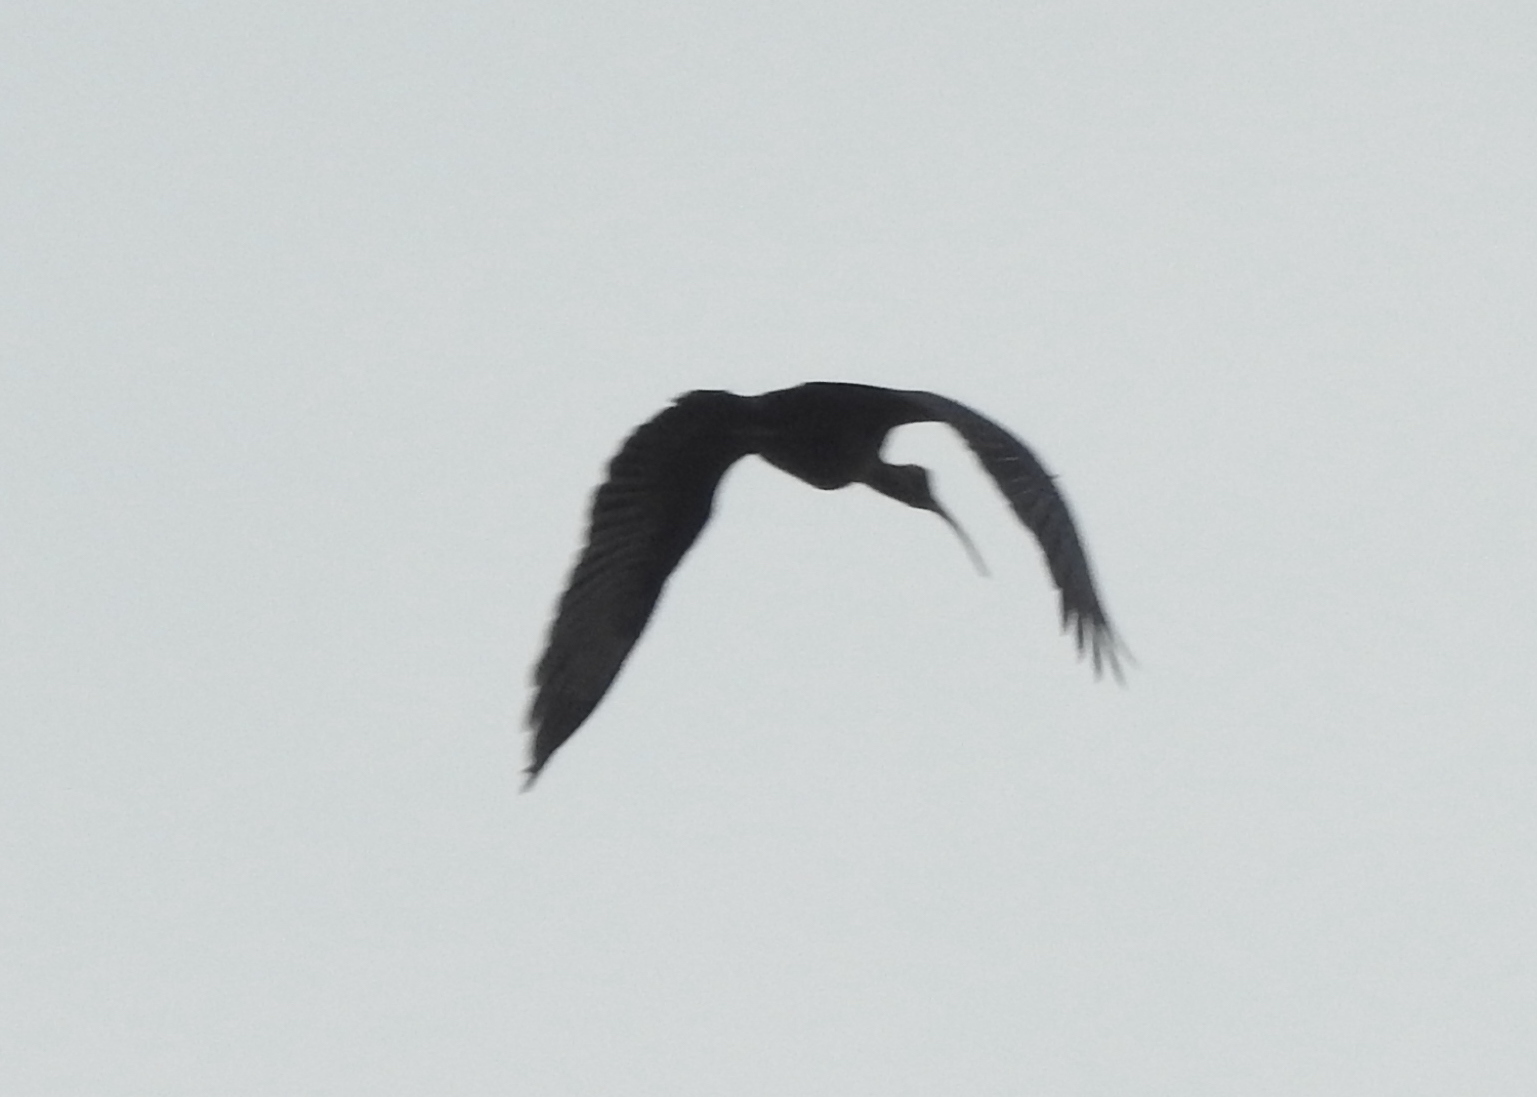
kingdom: Animalia
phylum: Chordata
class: Aves
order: Pelecaniformes
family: Threskiornithidae
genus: Pseudibis
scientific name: Pseudibis papillosa
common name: Red-naped ibis
